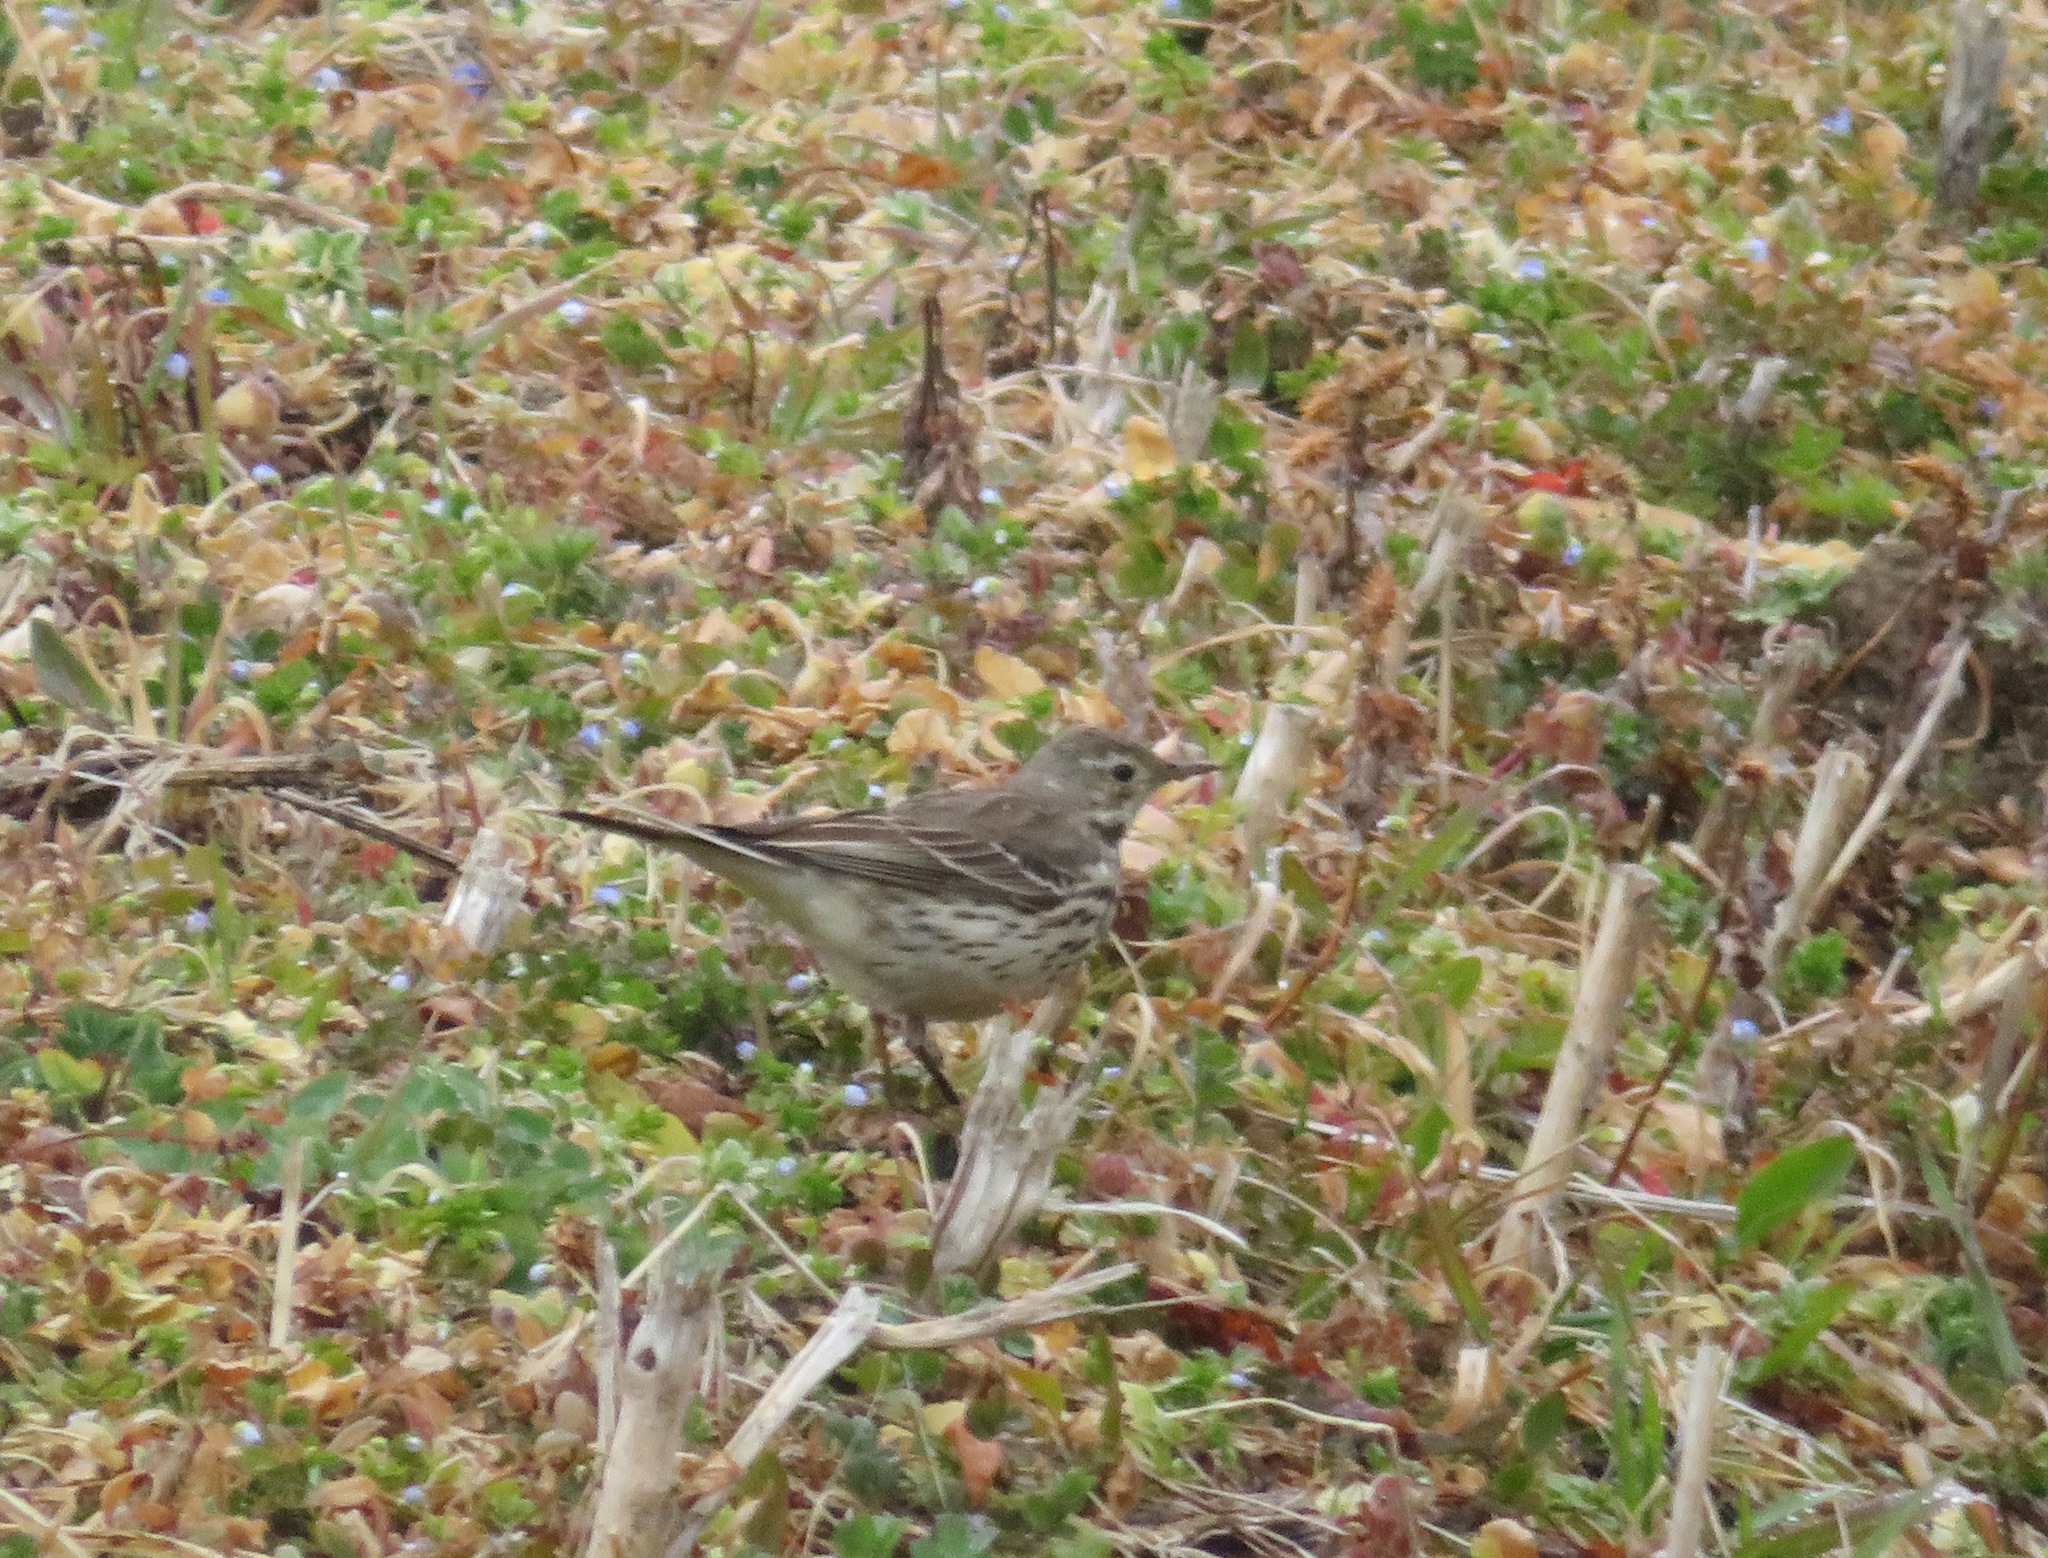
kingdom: Animalia
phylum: Chordata
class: Aves
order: Passeriformes
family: Motacillidae
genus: Anthus
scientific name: Anthus rubescens
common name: Buff-bellied pipit
